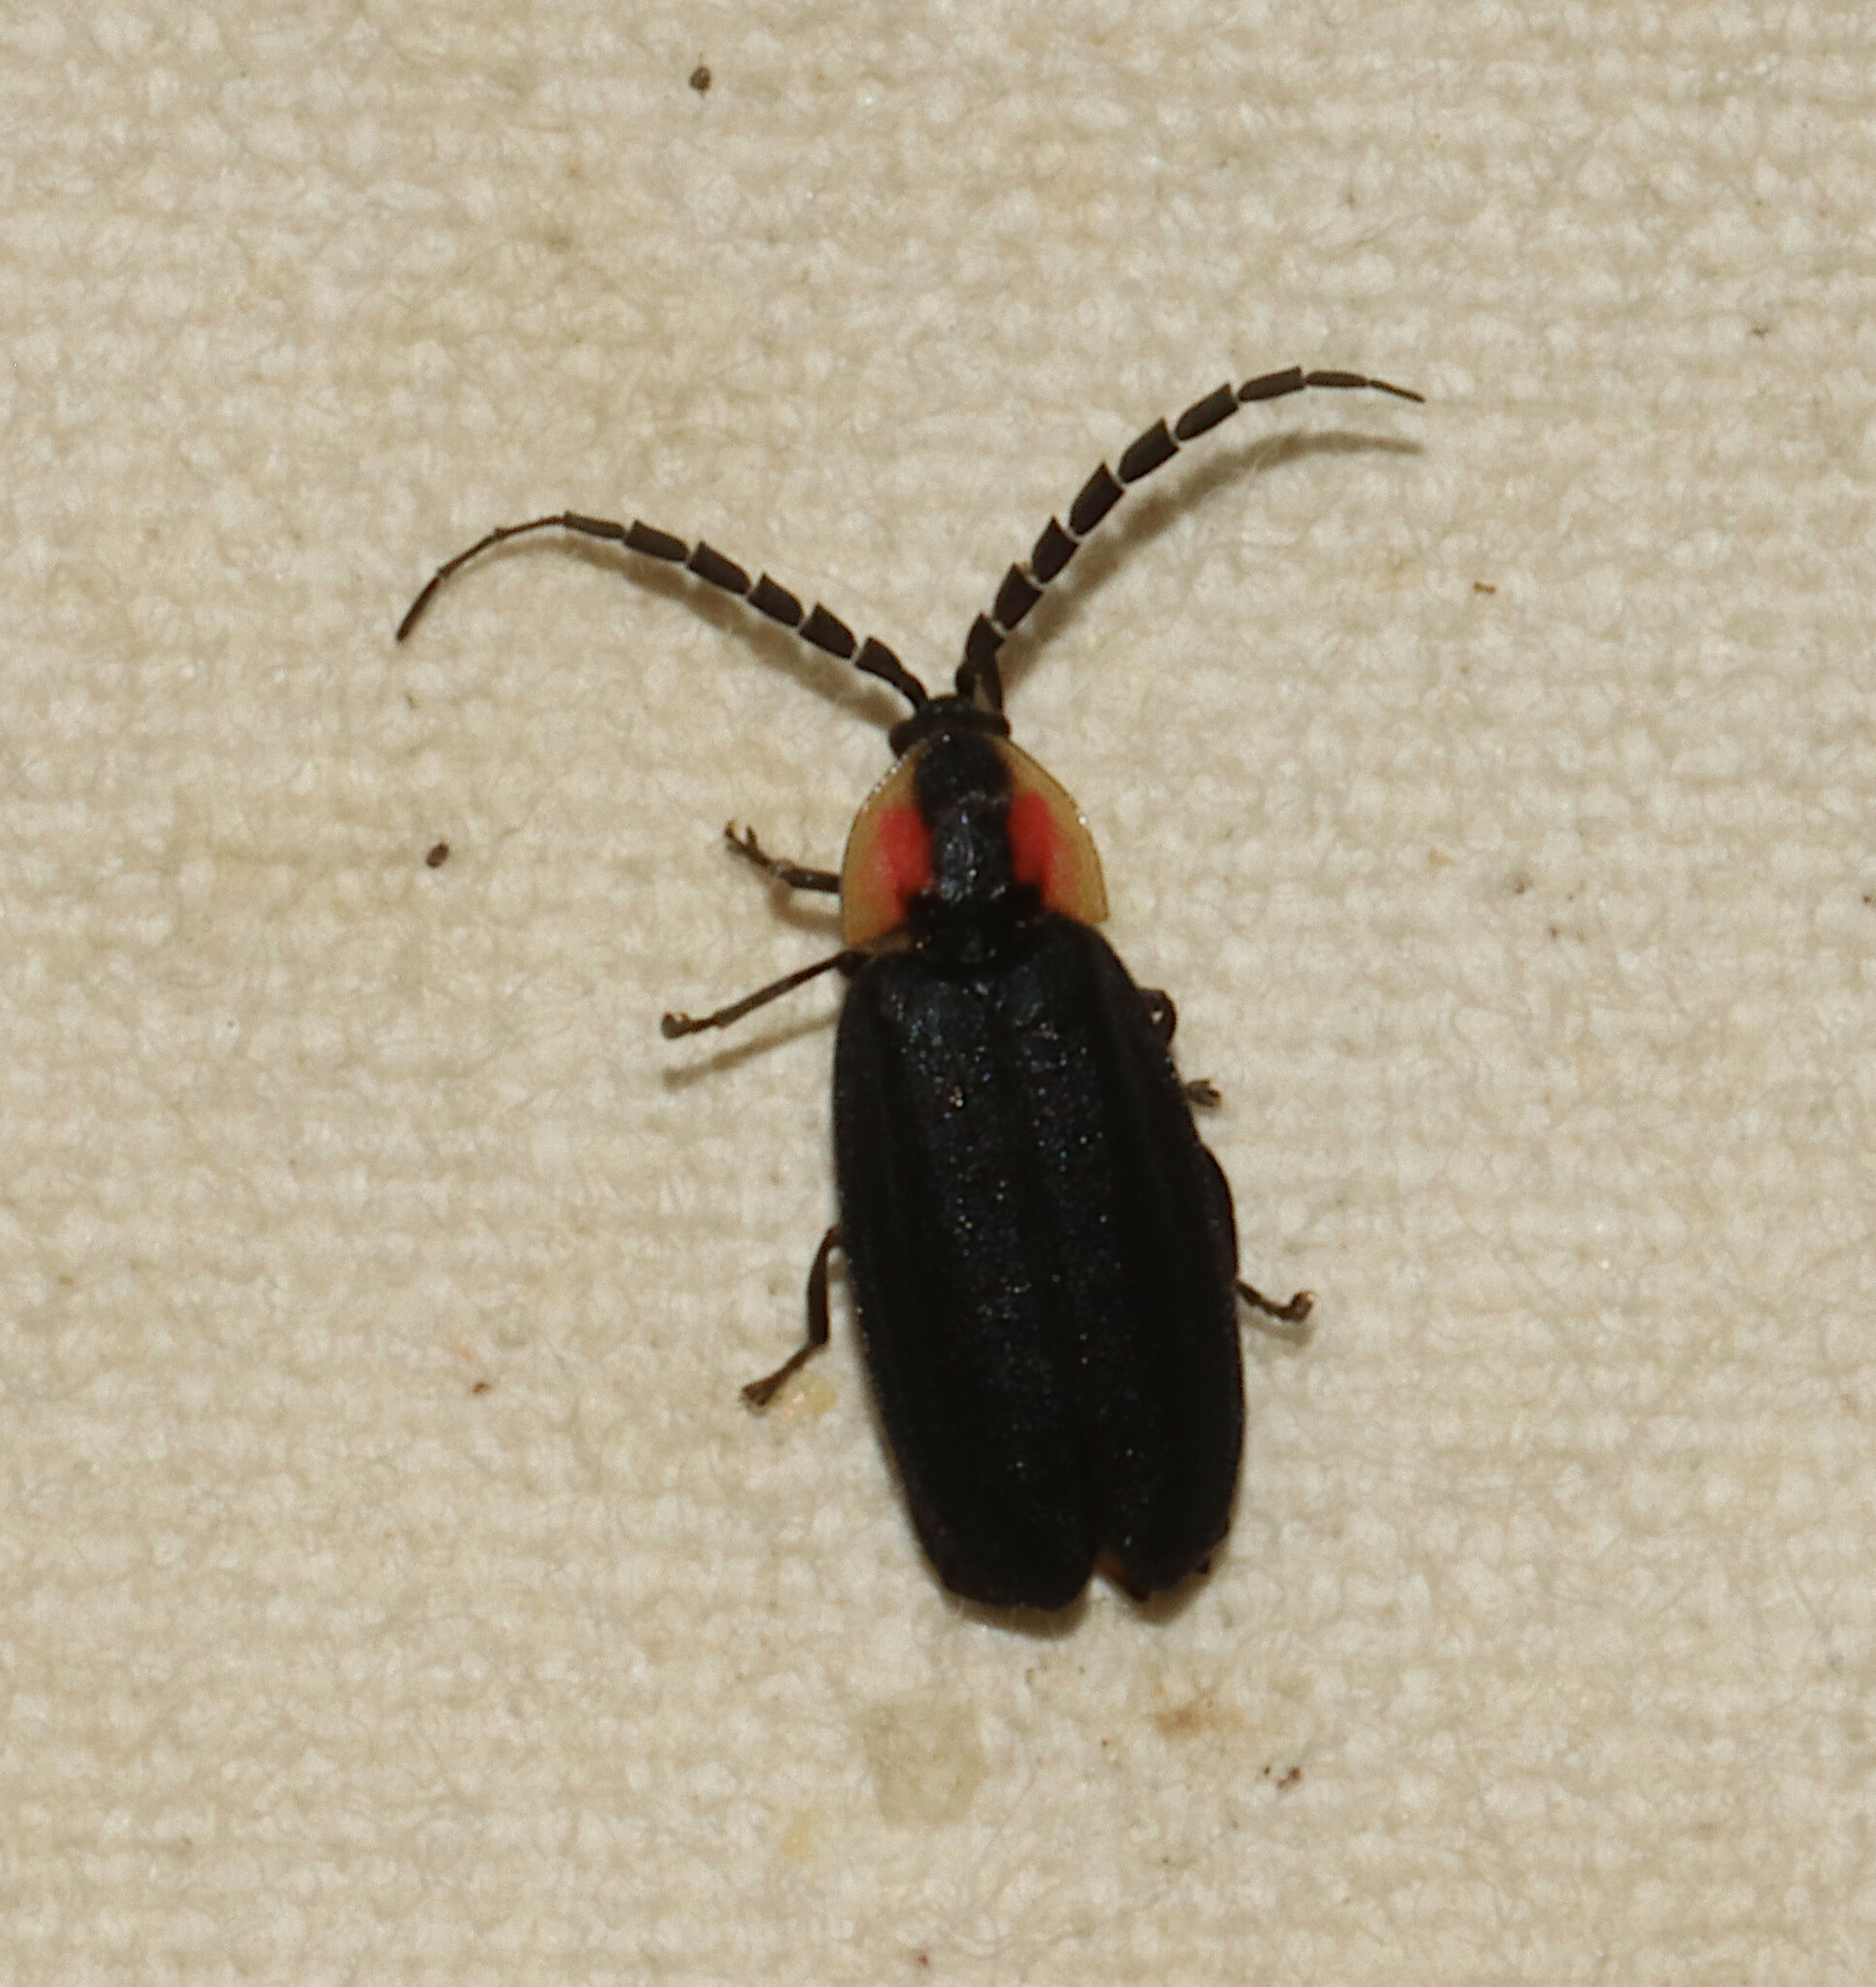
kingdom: Animalia
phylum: Arthropoda
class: Insecta
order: Coleoptera
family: Lampyridae
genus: Lucidota
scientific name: Lucidota atra
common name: Black firefly
